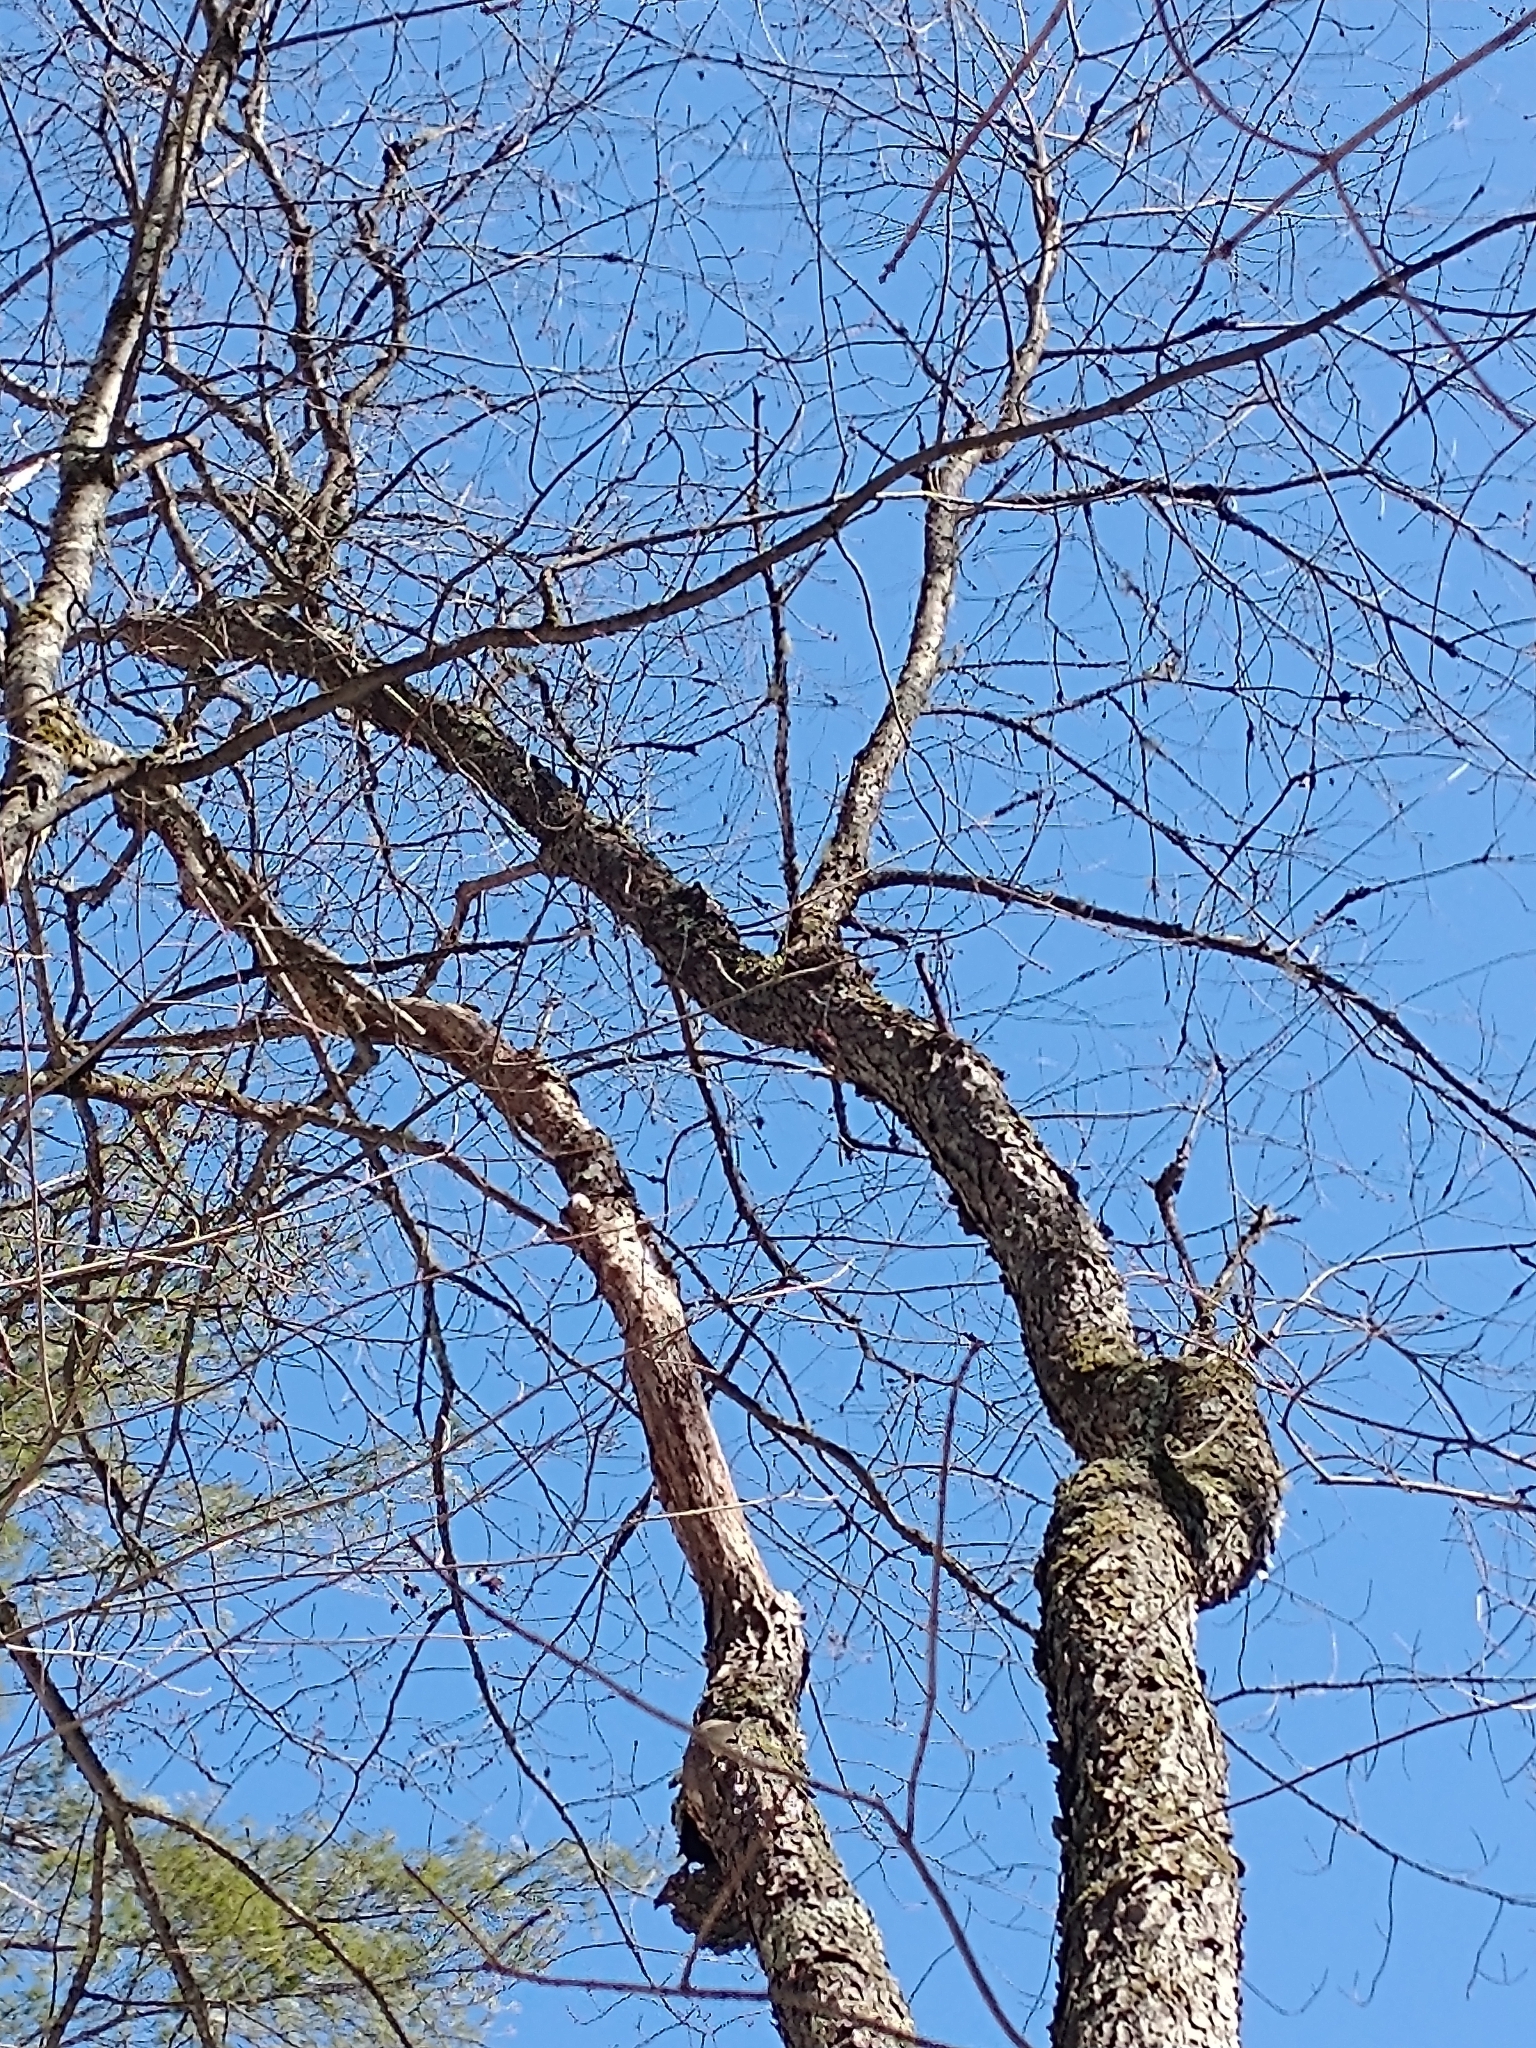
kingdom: Plantae
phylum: Tracheophyta
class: Magnoliopsida
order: Rosales
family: Rosaceae
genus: Prunus
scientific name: Prunus serotina
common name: Black cherry
